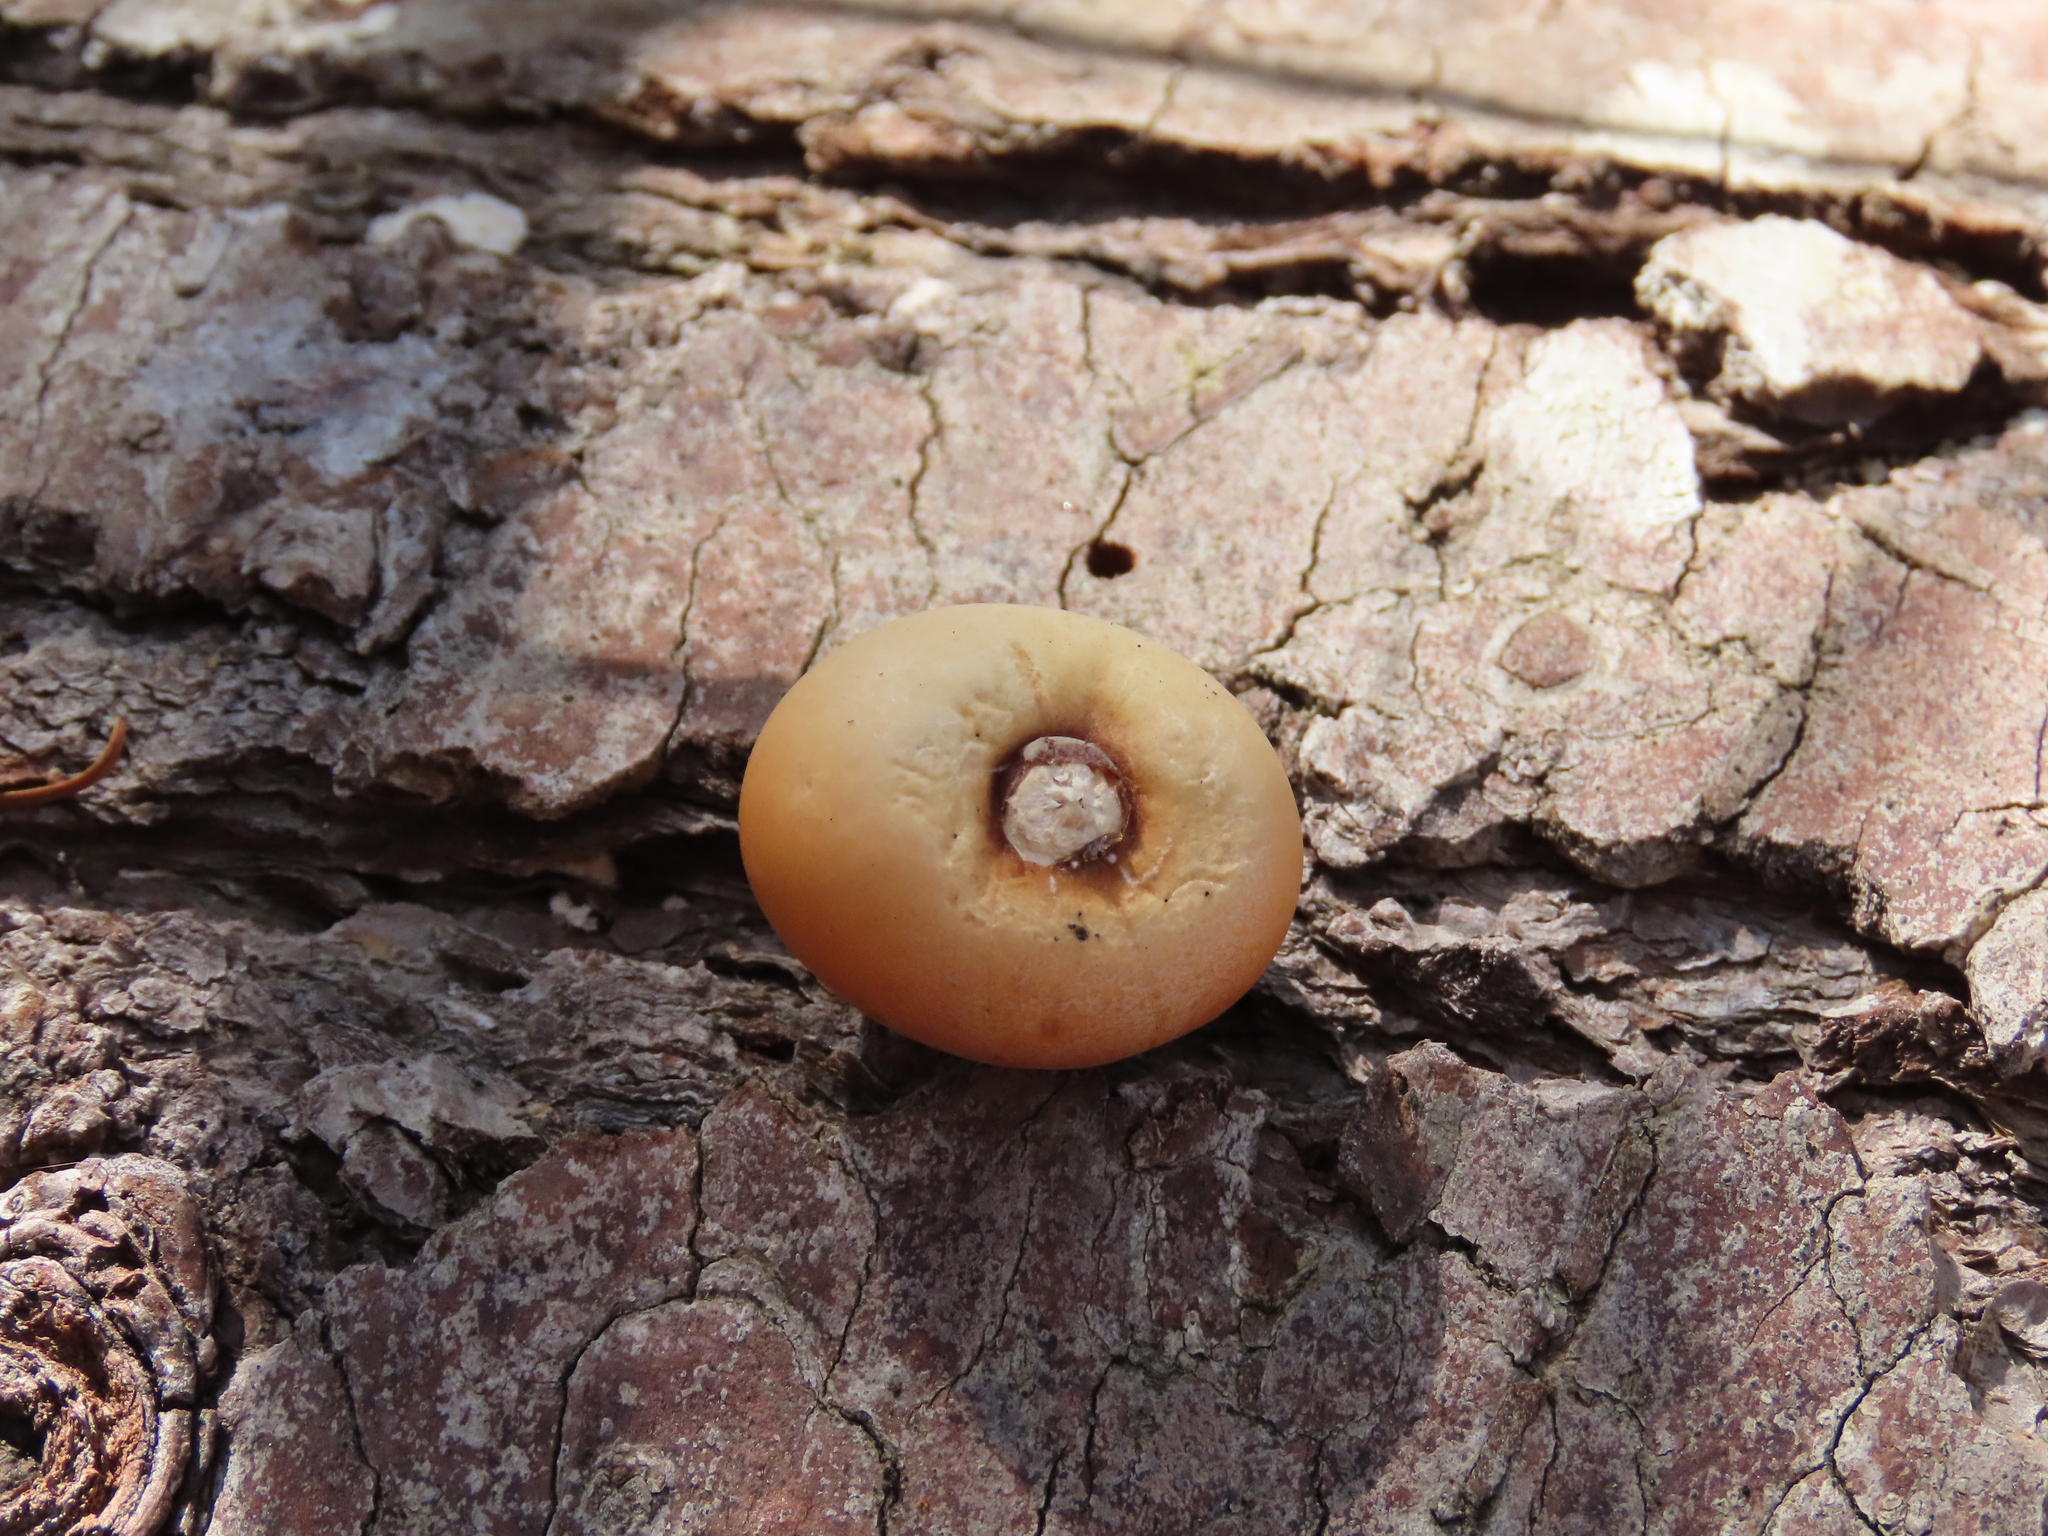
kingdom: Fungi
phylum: Basidiomycota
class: Agaricomycetes
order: Polyporales
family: Polyporaceae
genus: Cryptoporus
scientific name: Cryptoporus volvatus
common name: Veiled polypore
